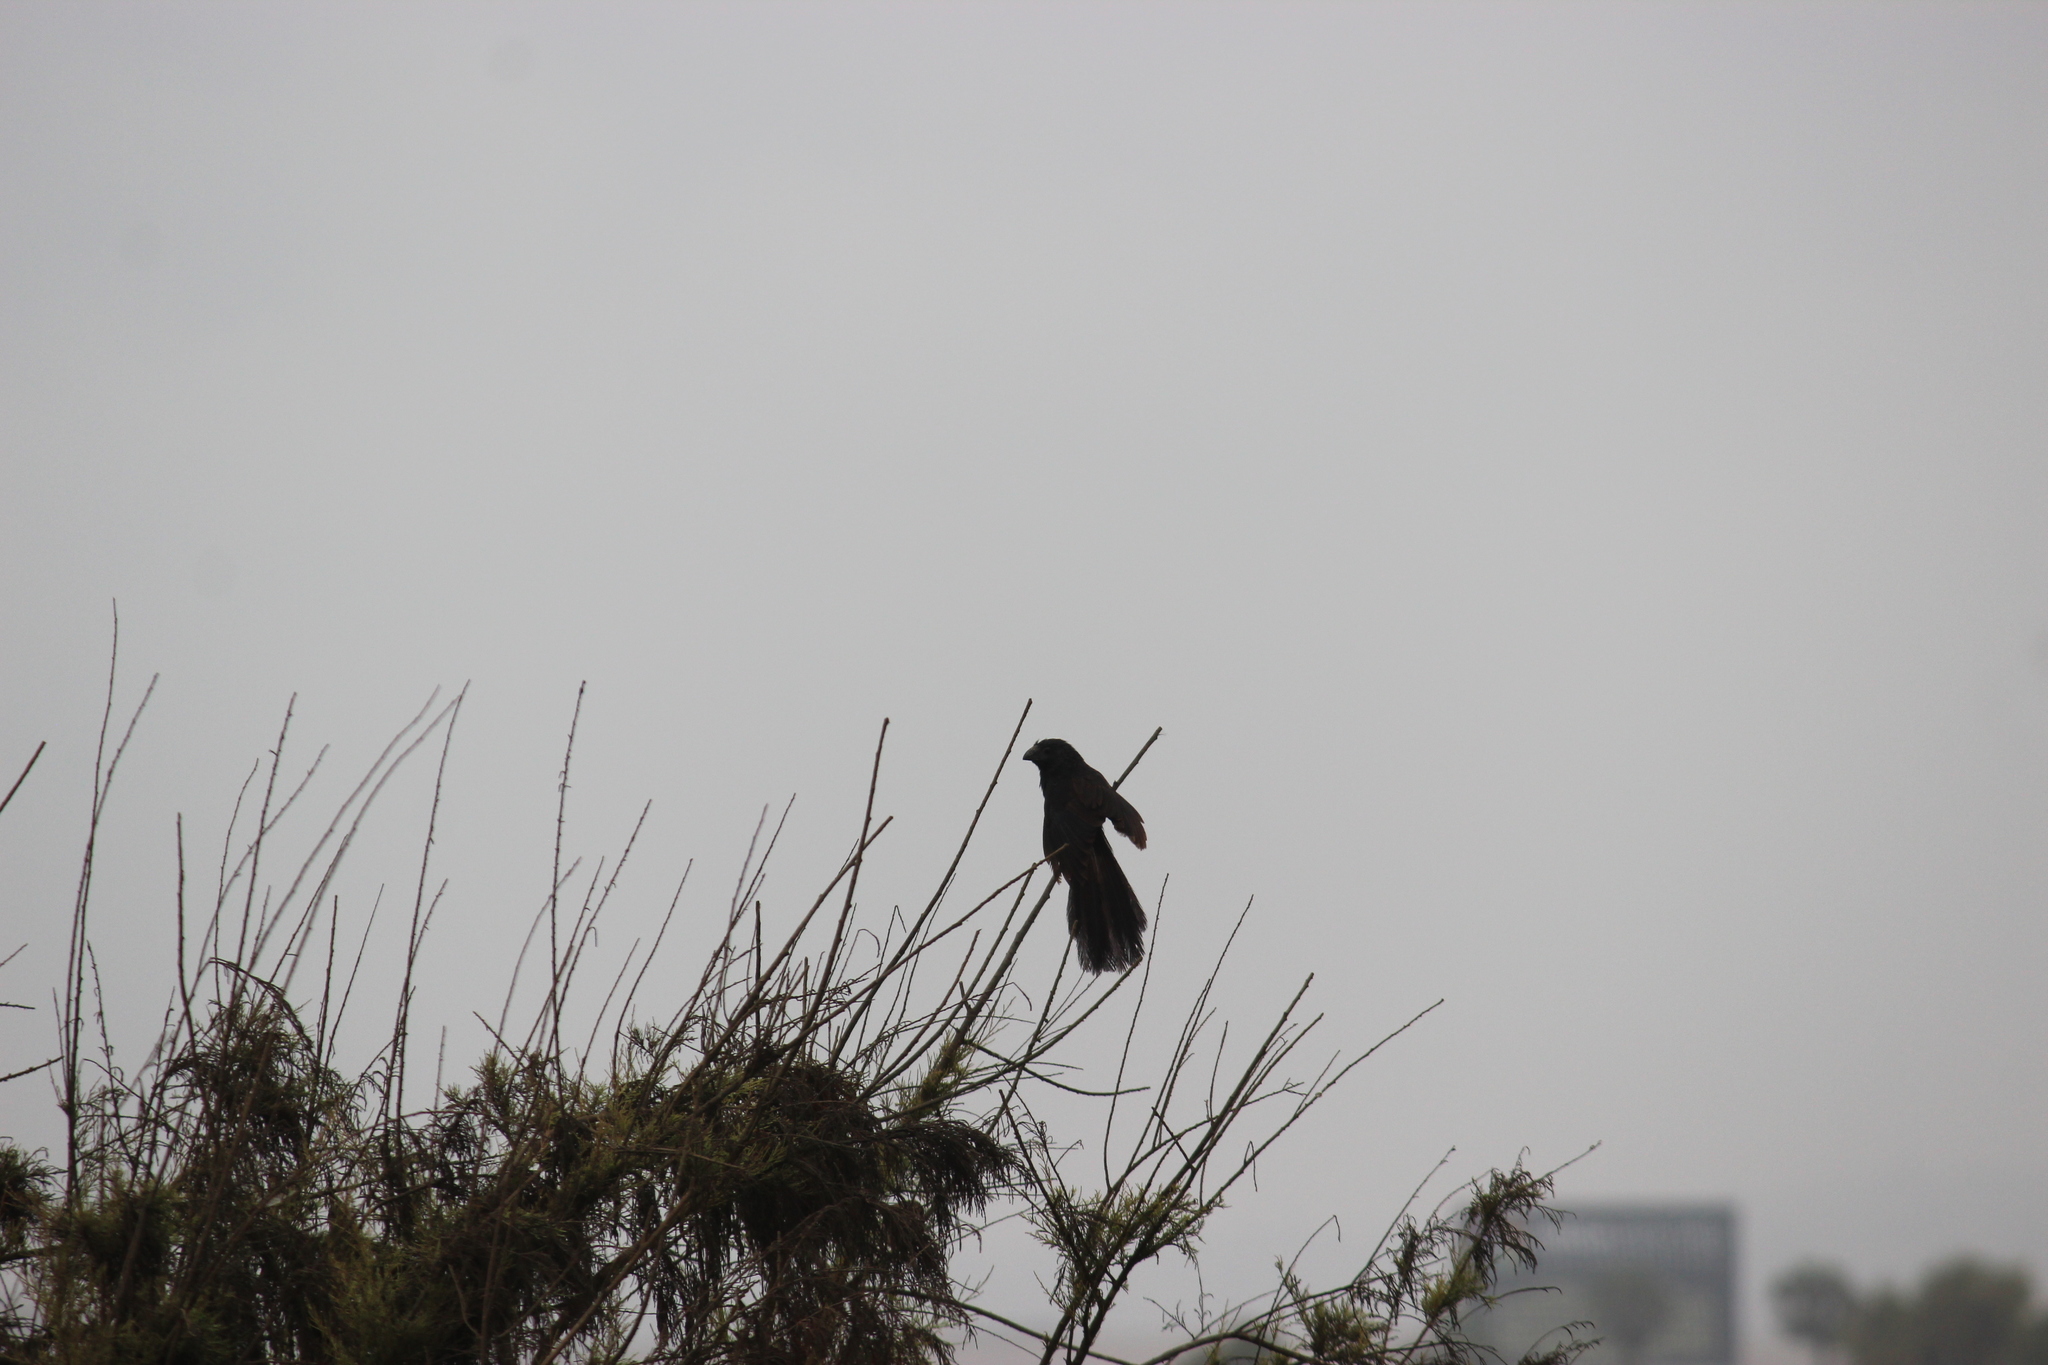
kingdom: Animalia
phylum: Chordata
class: Aves
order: Cuculiformes
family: Cuculidae
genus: Crotophaga
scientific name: Crotophaga sulcirostris
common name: Groove-billed ani
